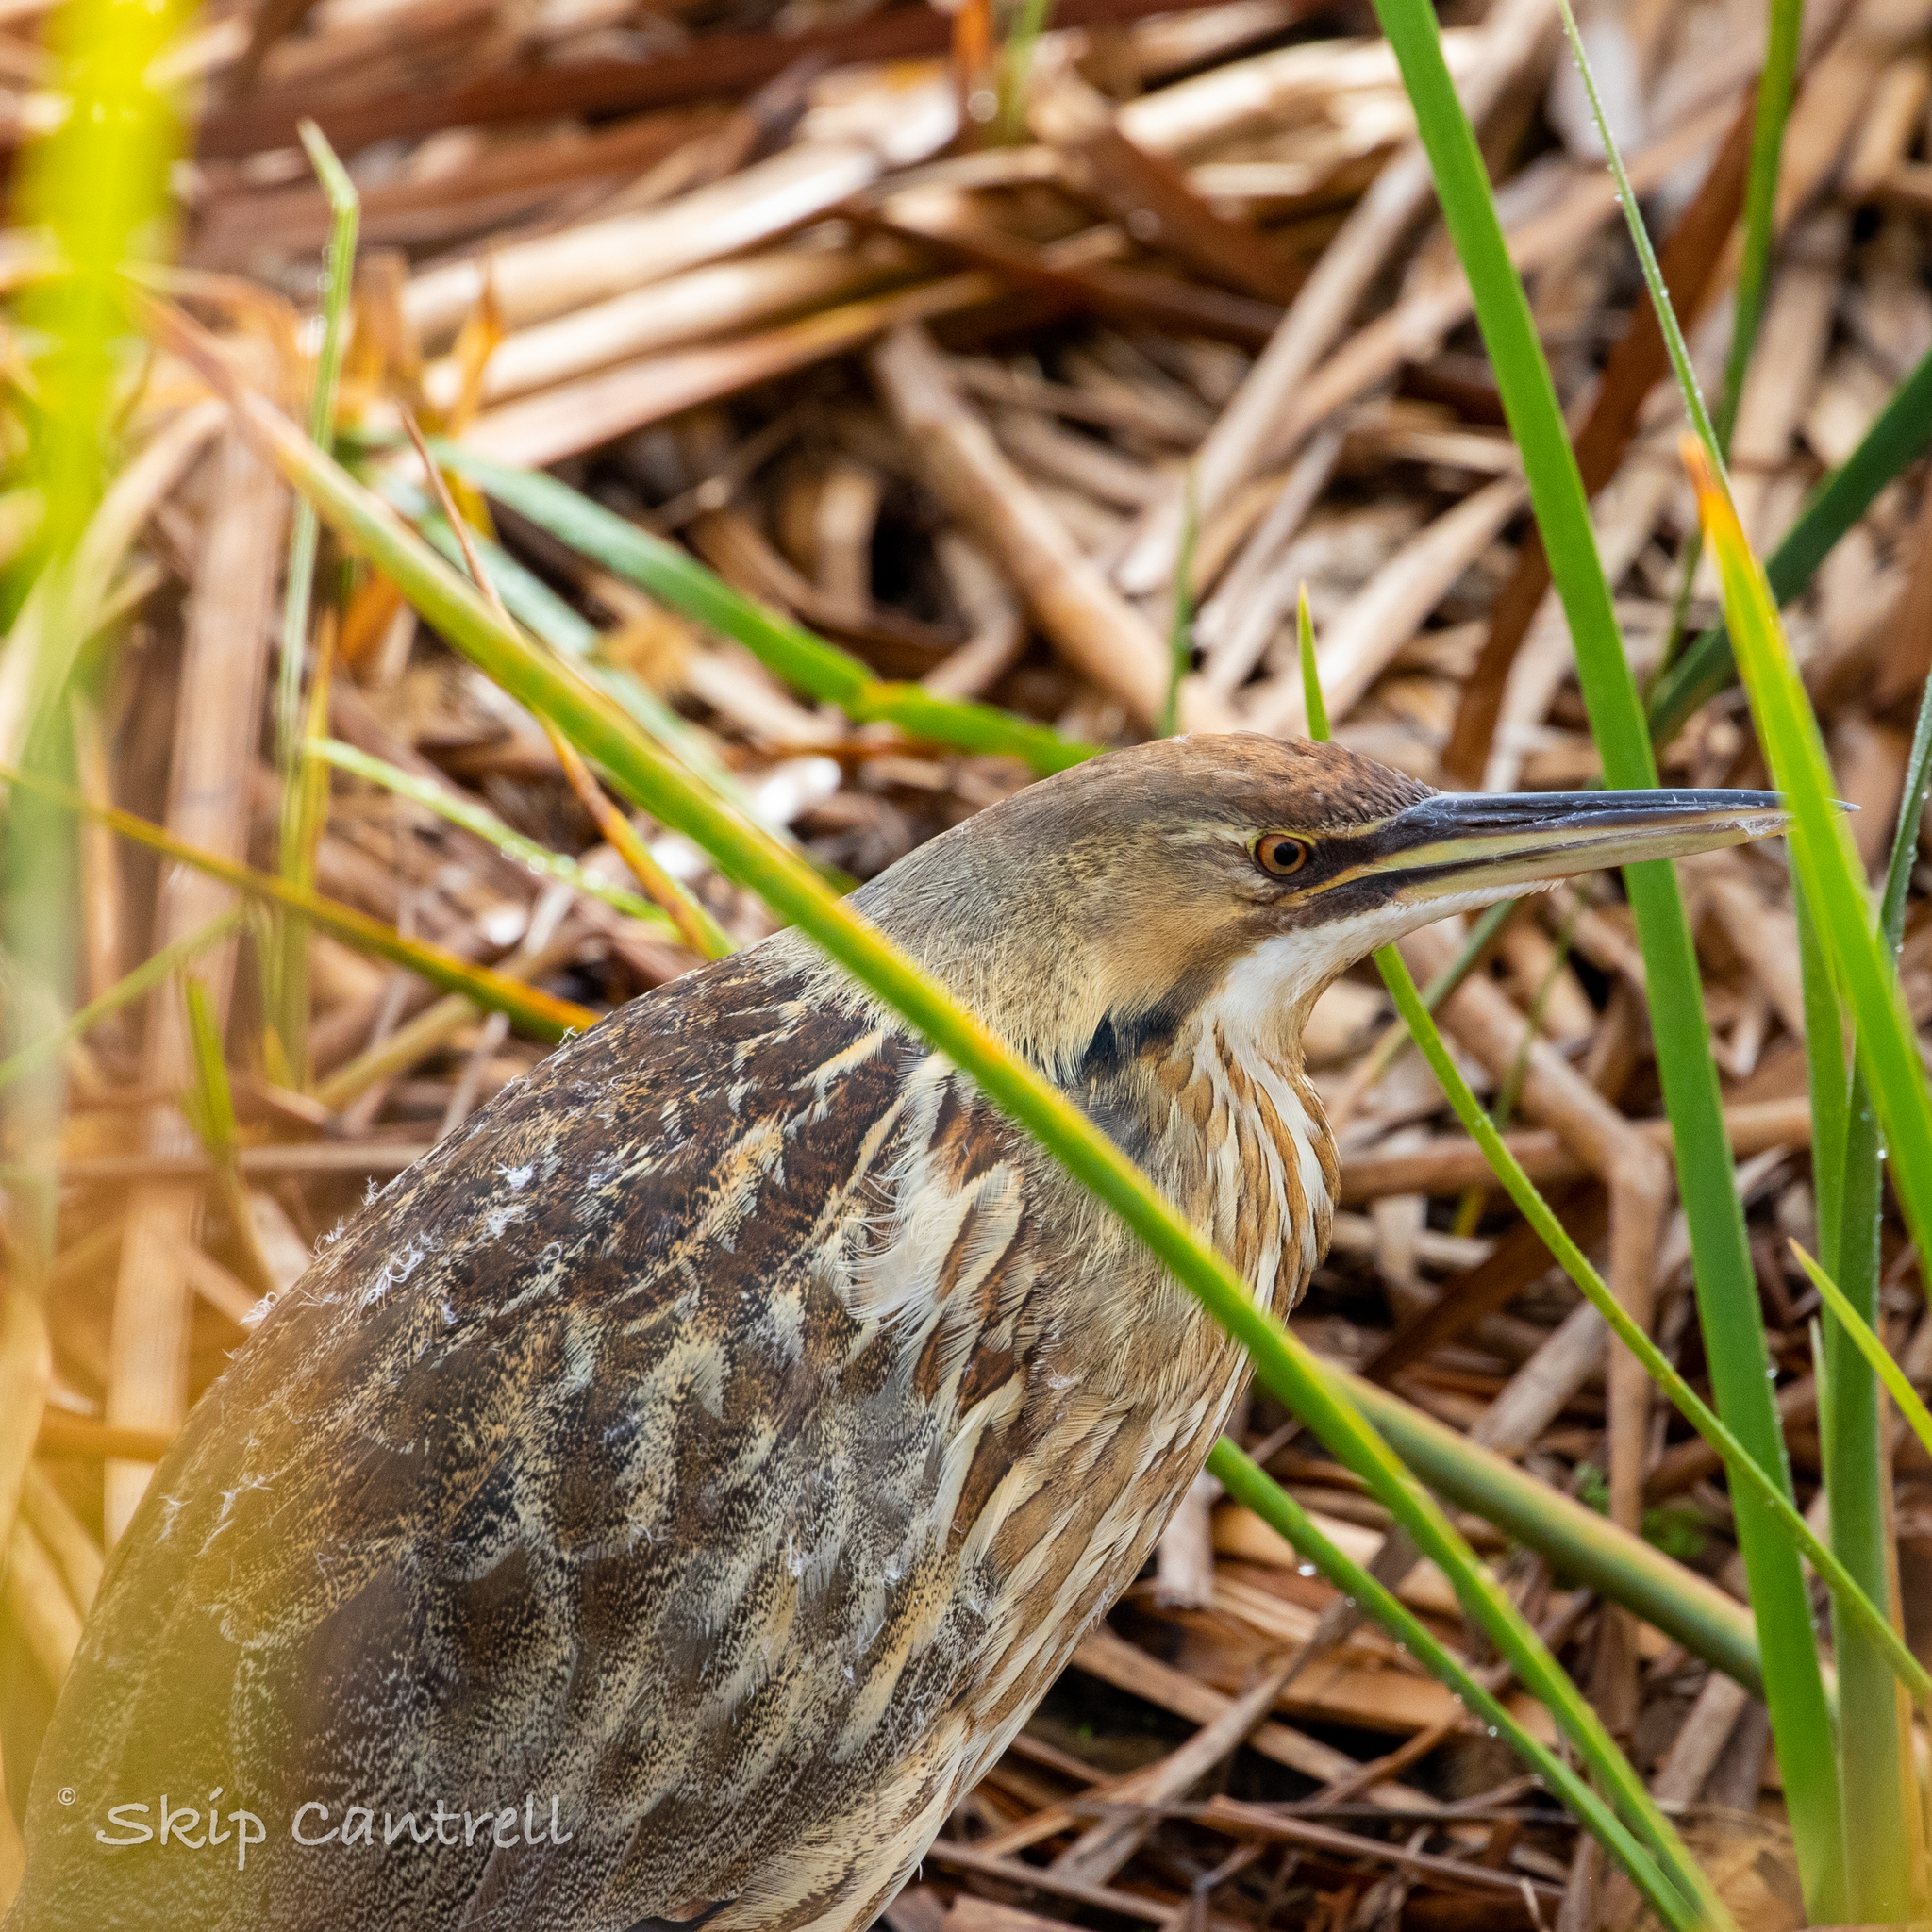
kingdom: Animalia
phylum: Chordata
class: Aves
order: Pelecaniformes
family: Ardeidae
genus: Botaurus
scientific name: Botaurus lentiginosus
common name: American bittern
